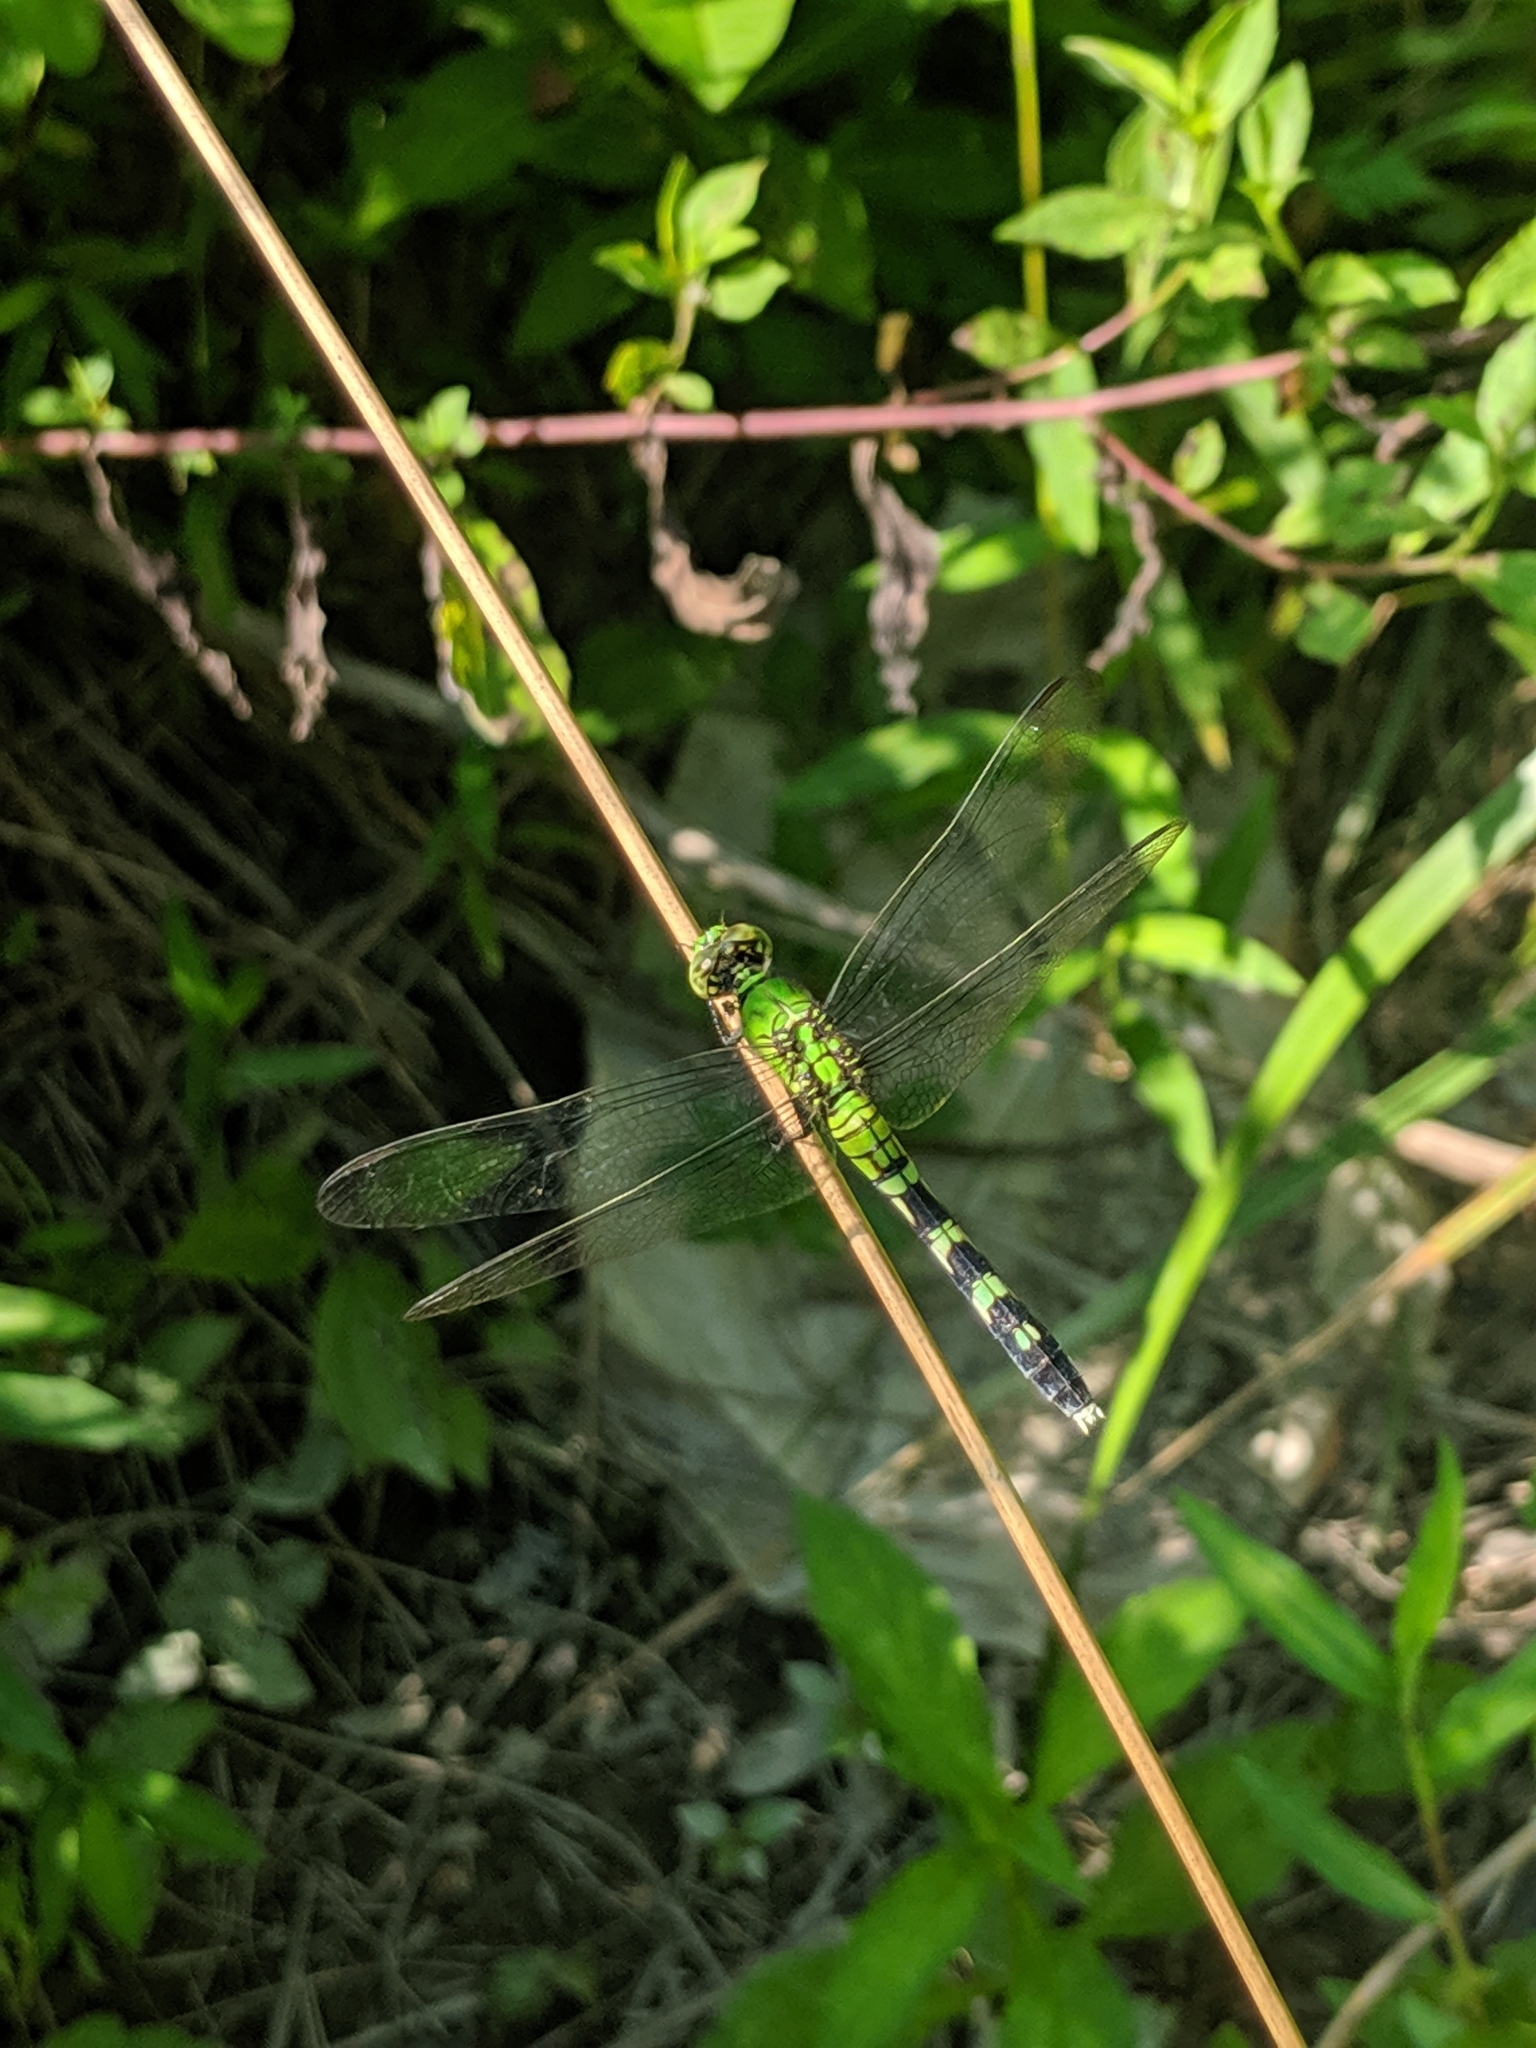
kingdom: Animalia
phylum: Arthropoda
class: Insecta
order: Odonata
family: Libellulidae
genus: Erythemis
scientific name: Erythemis simplicicollis
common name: Eastern pondhawk
